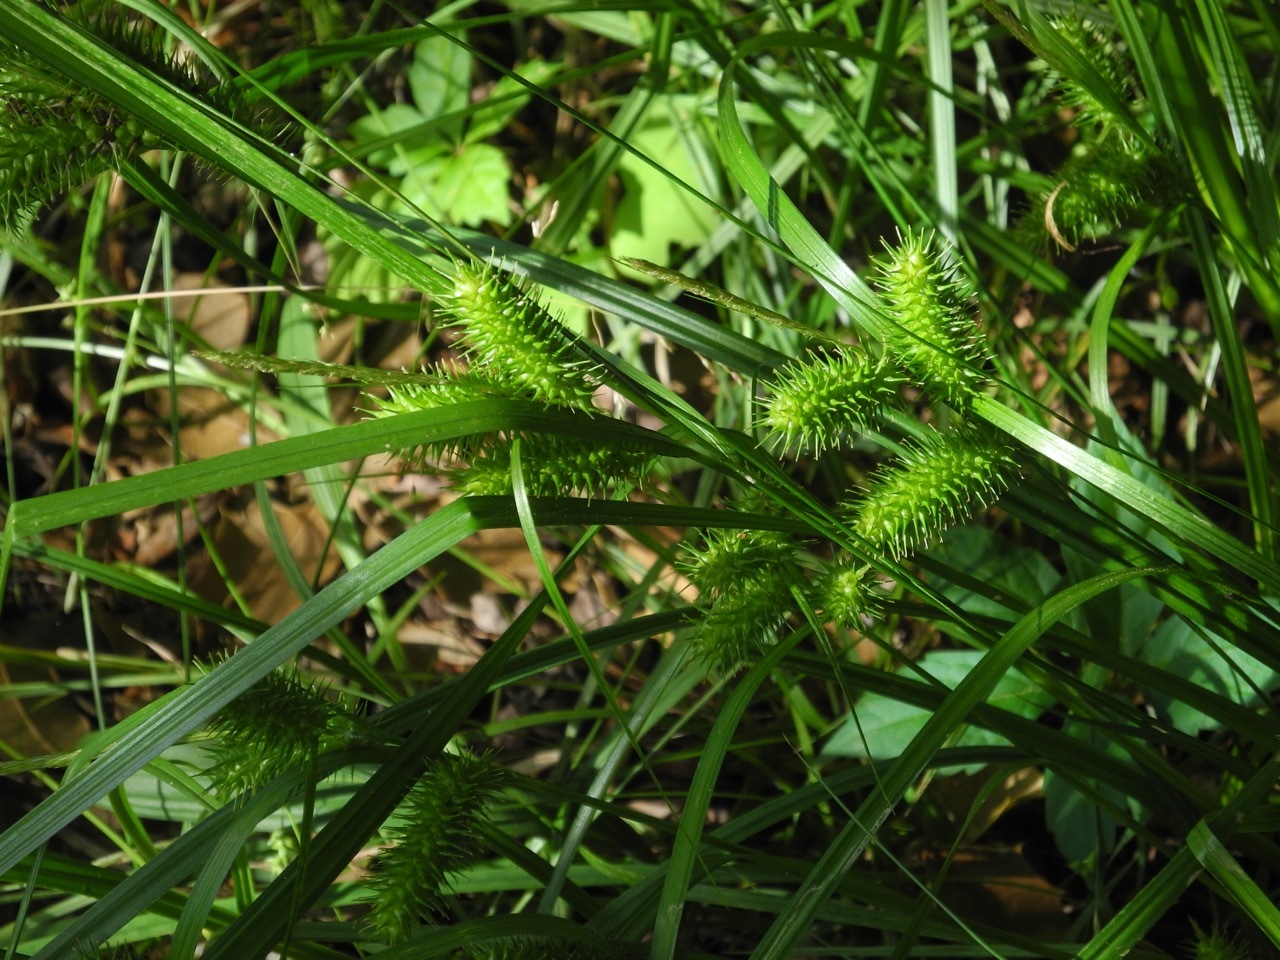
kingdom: Plantae
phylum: Tracheophyta
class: Liliopsida
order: Poales
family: Cyperaceae
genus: Carex
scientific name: Carex lurida
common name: Sallow sedge
